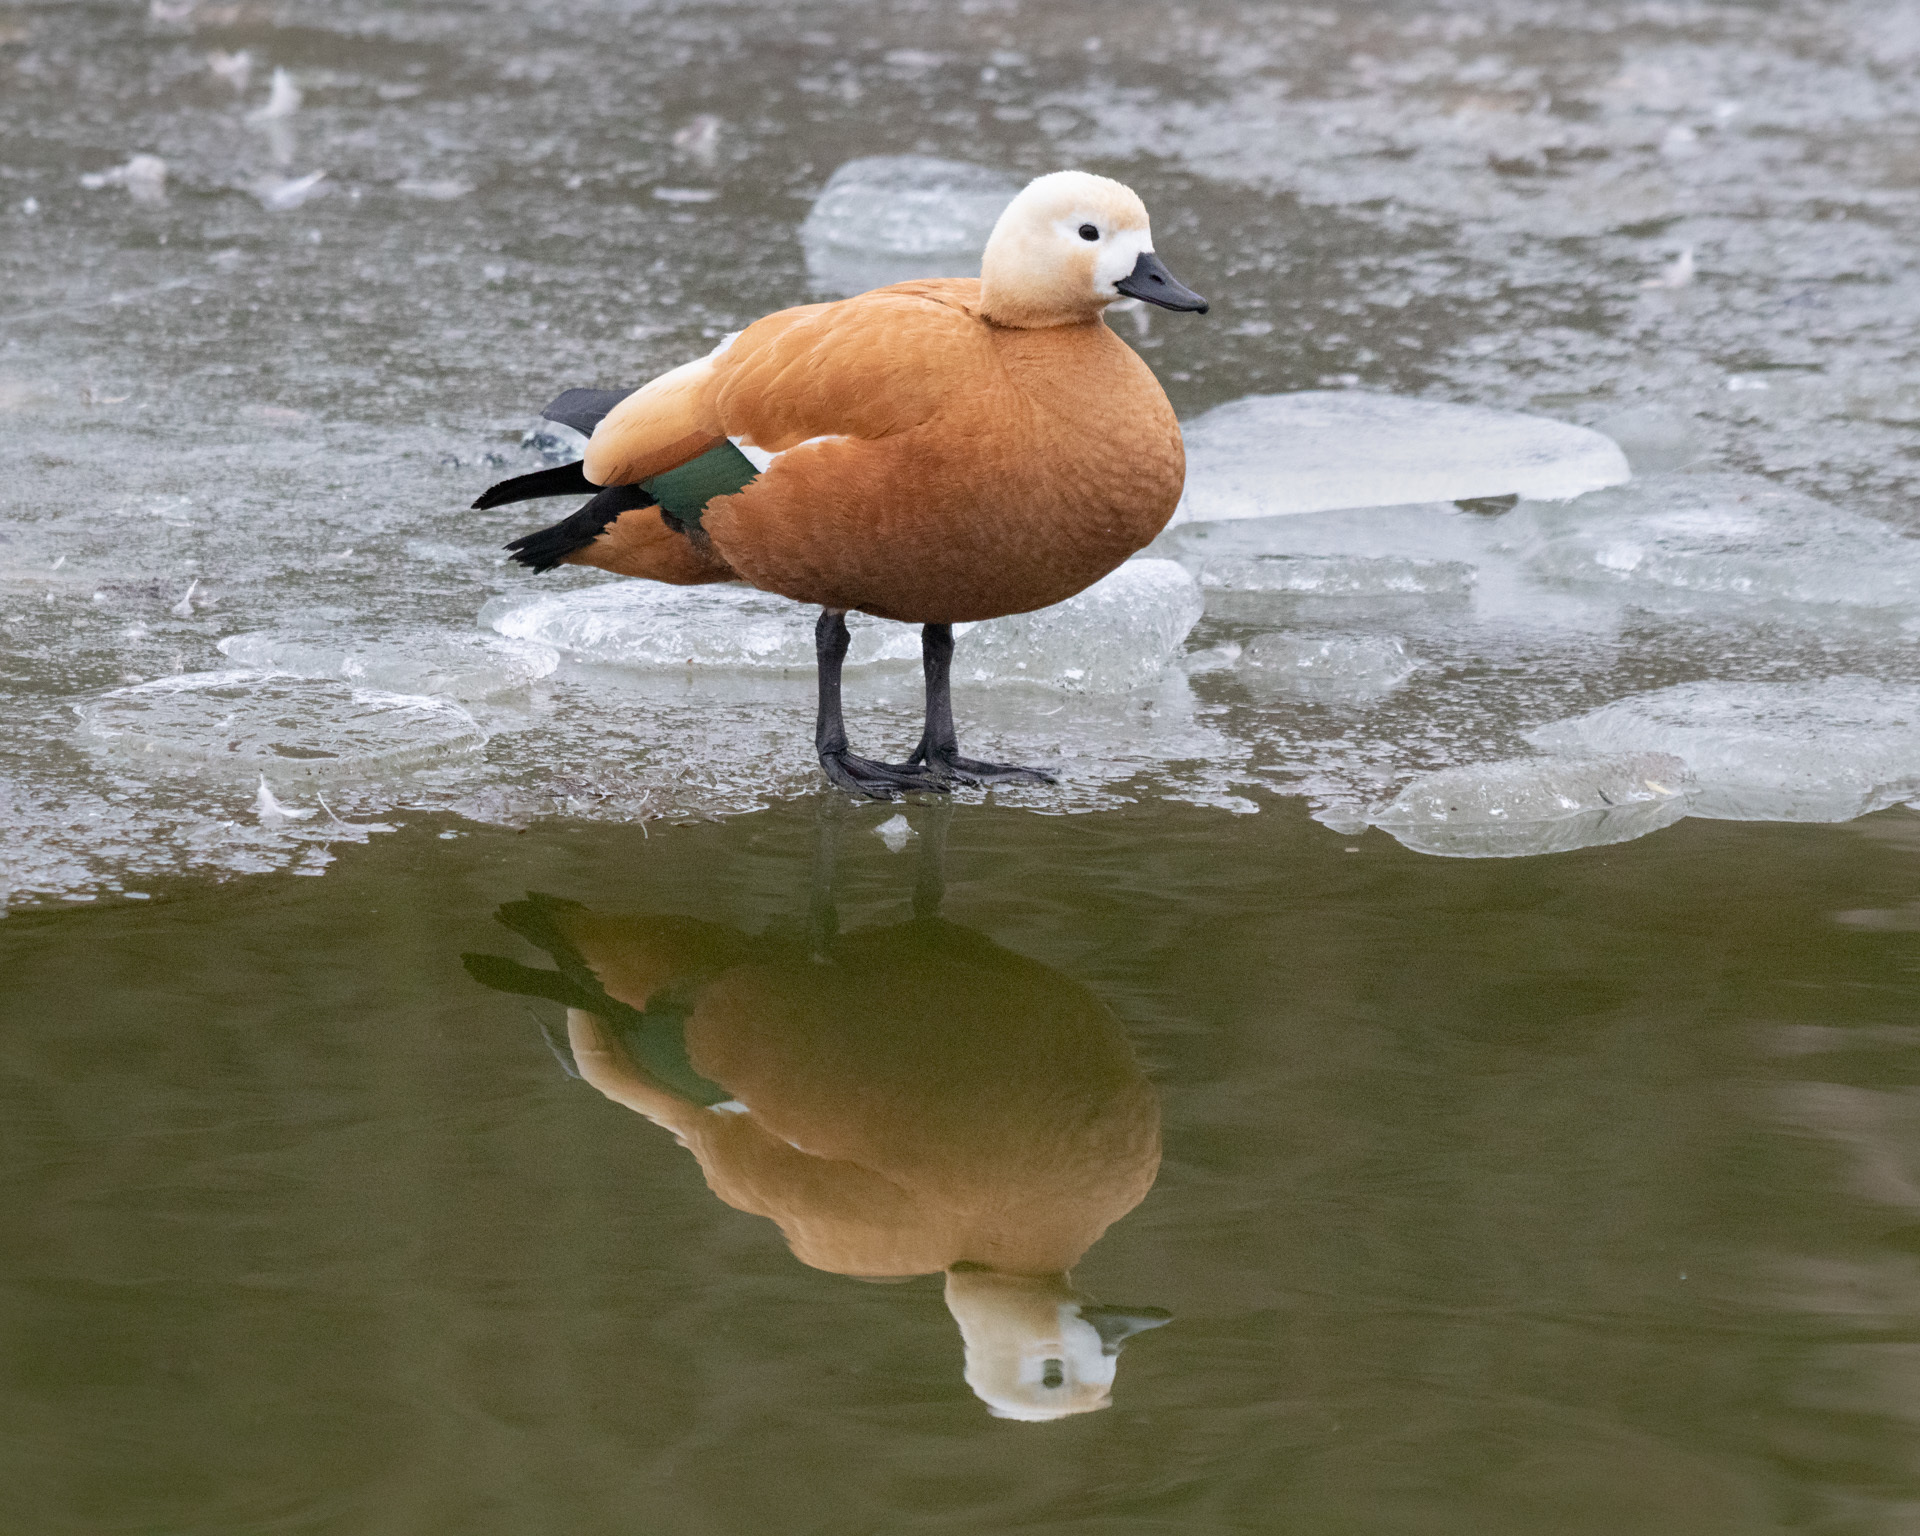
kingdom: Animalia
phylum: Chordata
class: Aves
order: Anseriformes
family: Anatidae
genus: Tadorna
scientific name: Tadorna ferruginea
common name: Ruddy shelduck
